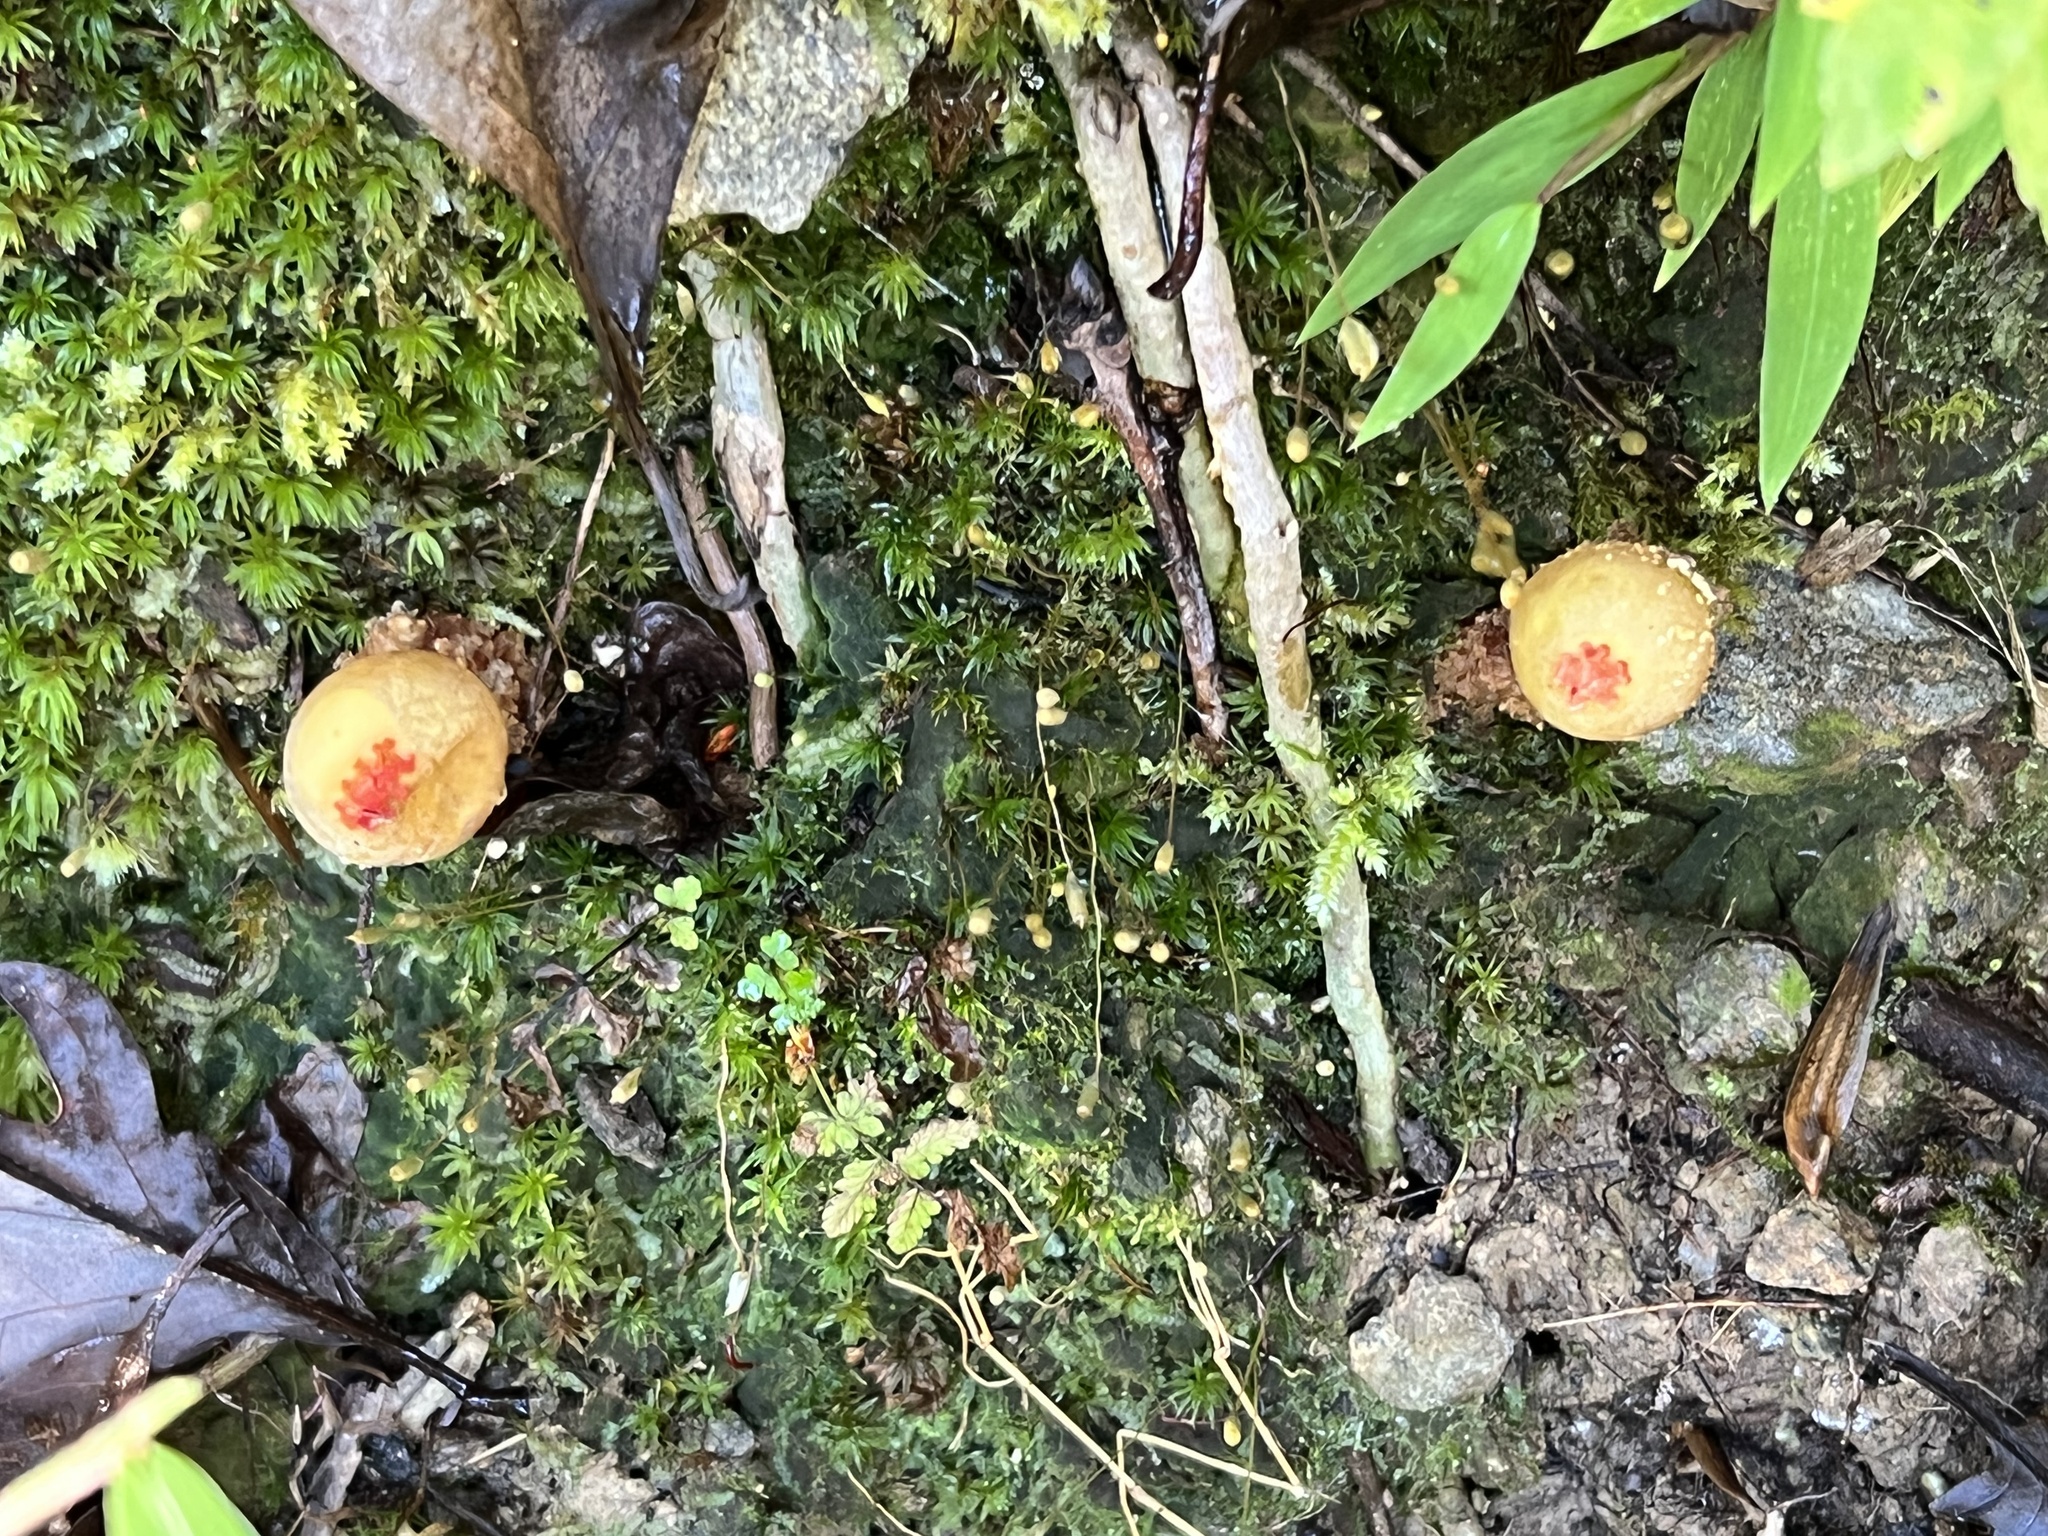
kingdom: Fungi
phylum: Basidiomycota
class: Agaricomycetes
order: Boletales
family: Calostomataceae
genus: Calostoma
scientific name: Calostoma ravenelii
